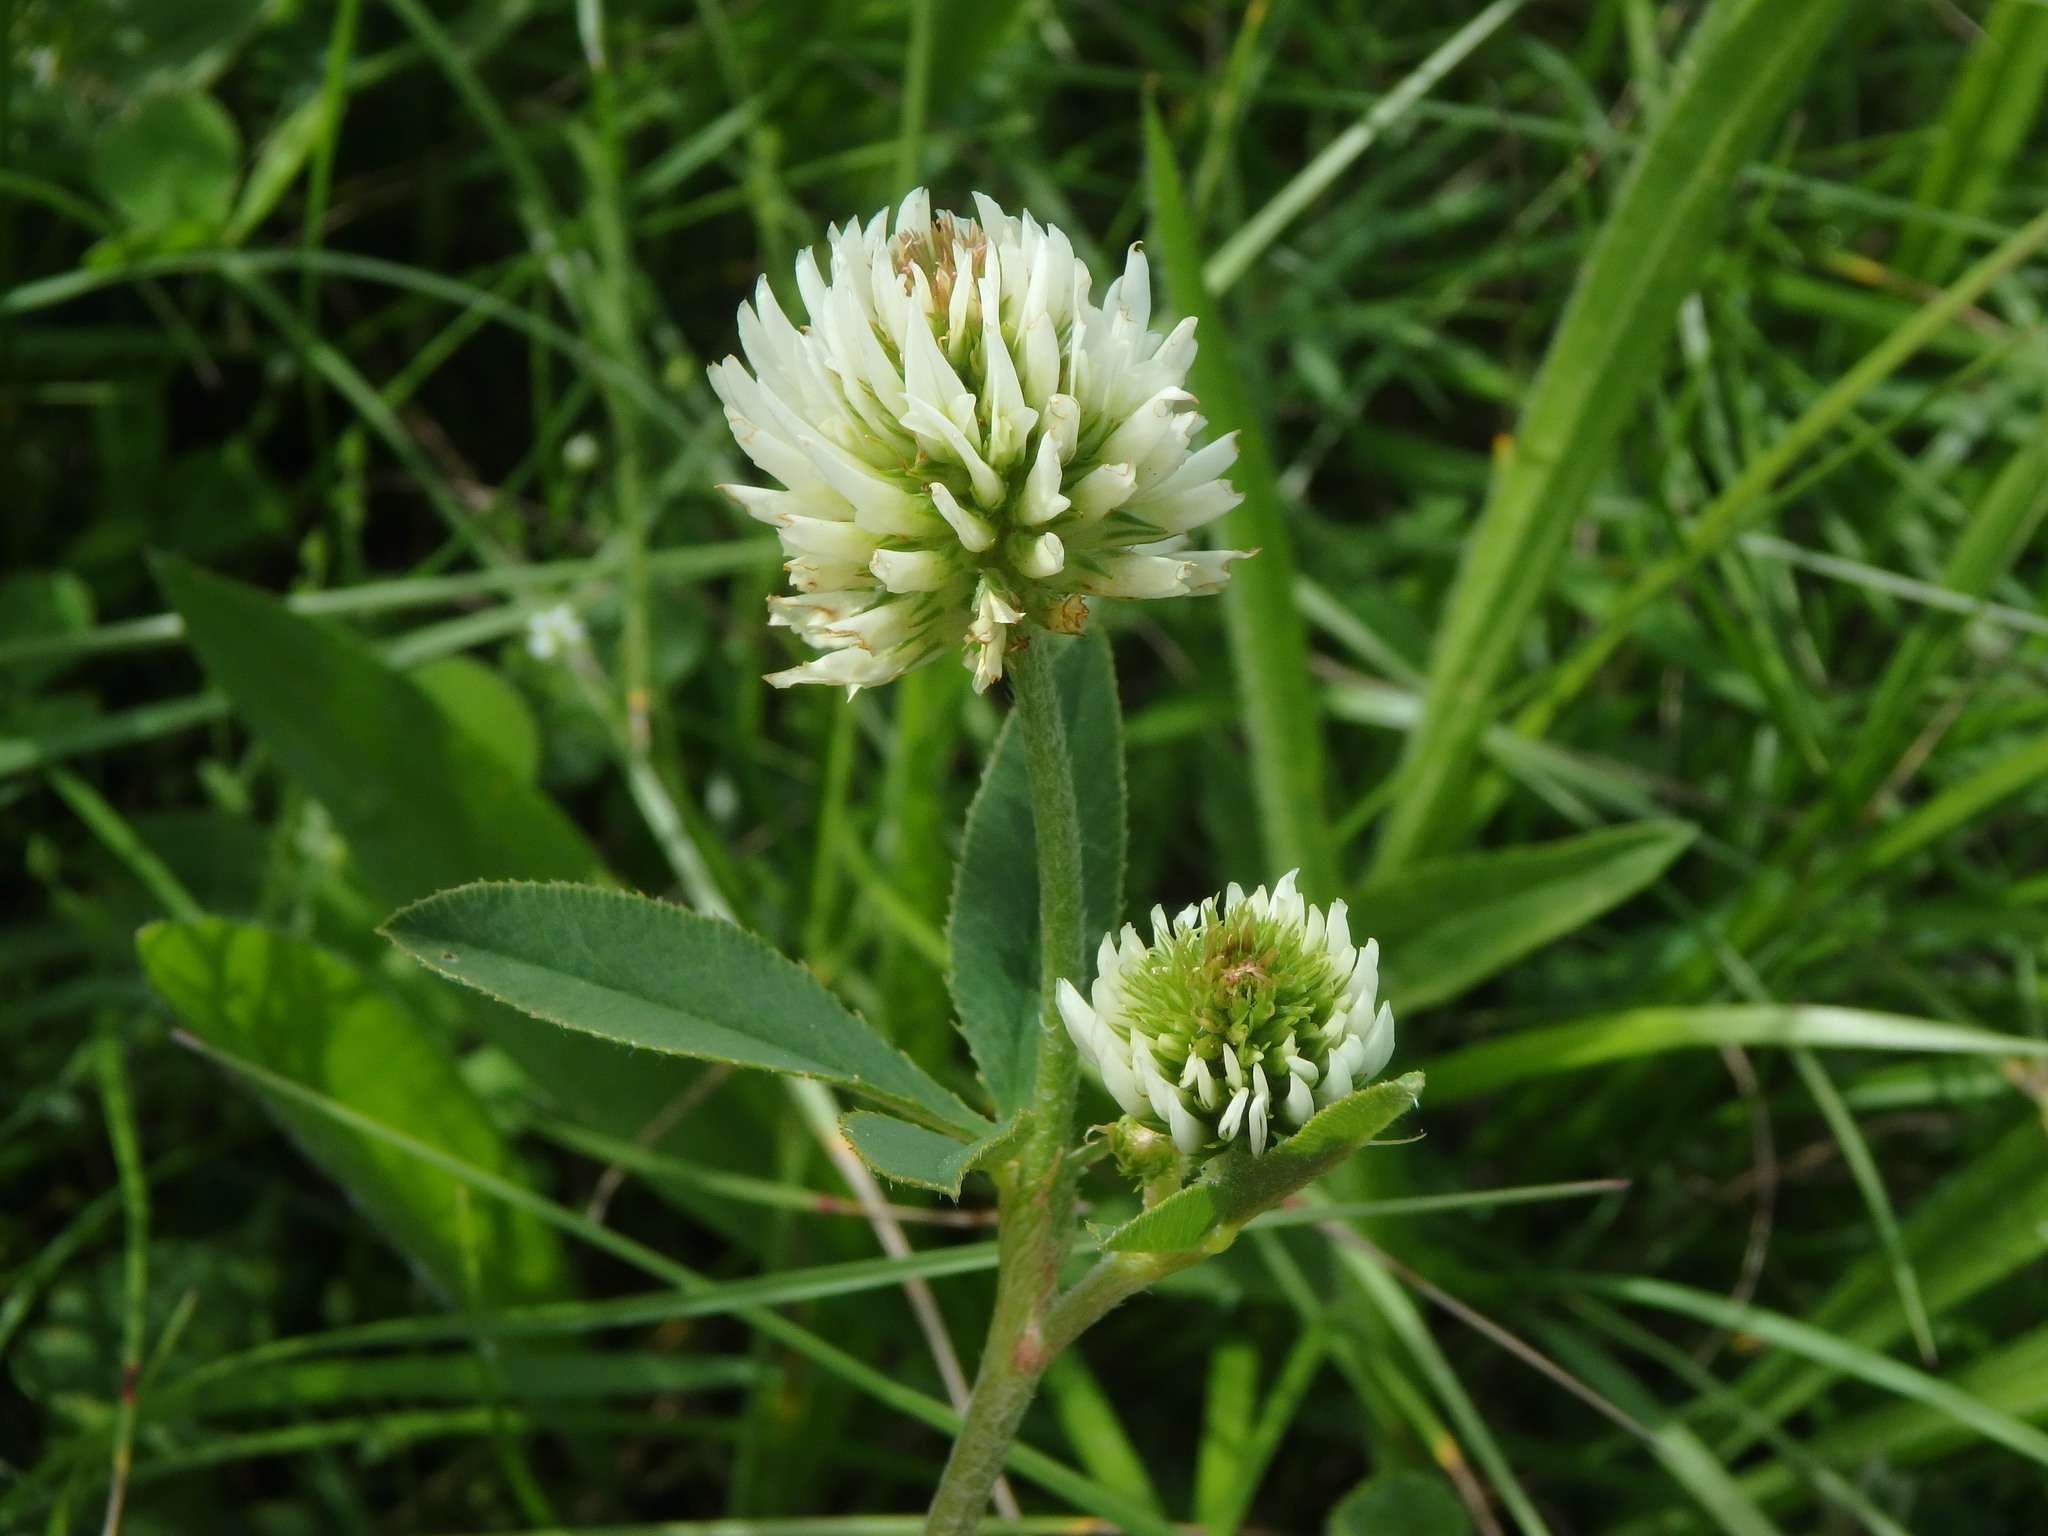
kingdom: Plantae
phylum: Tracheophyta
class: Magnoliopsida
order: Fabales
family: Fabaceae
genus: Trifolium
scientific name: Trifolium montanum
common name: Mountain clover
